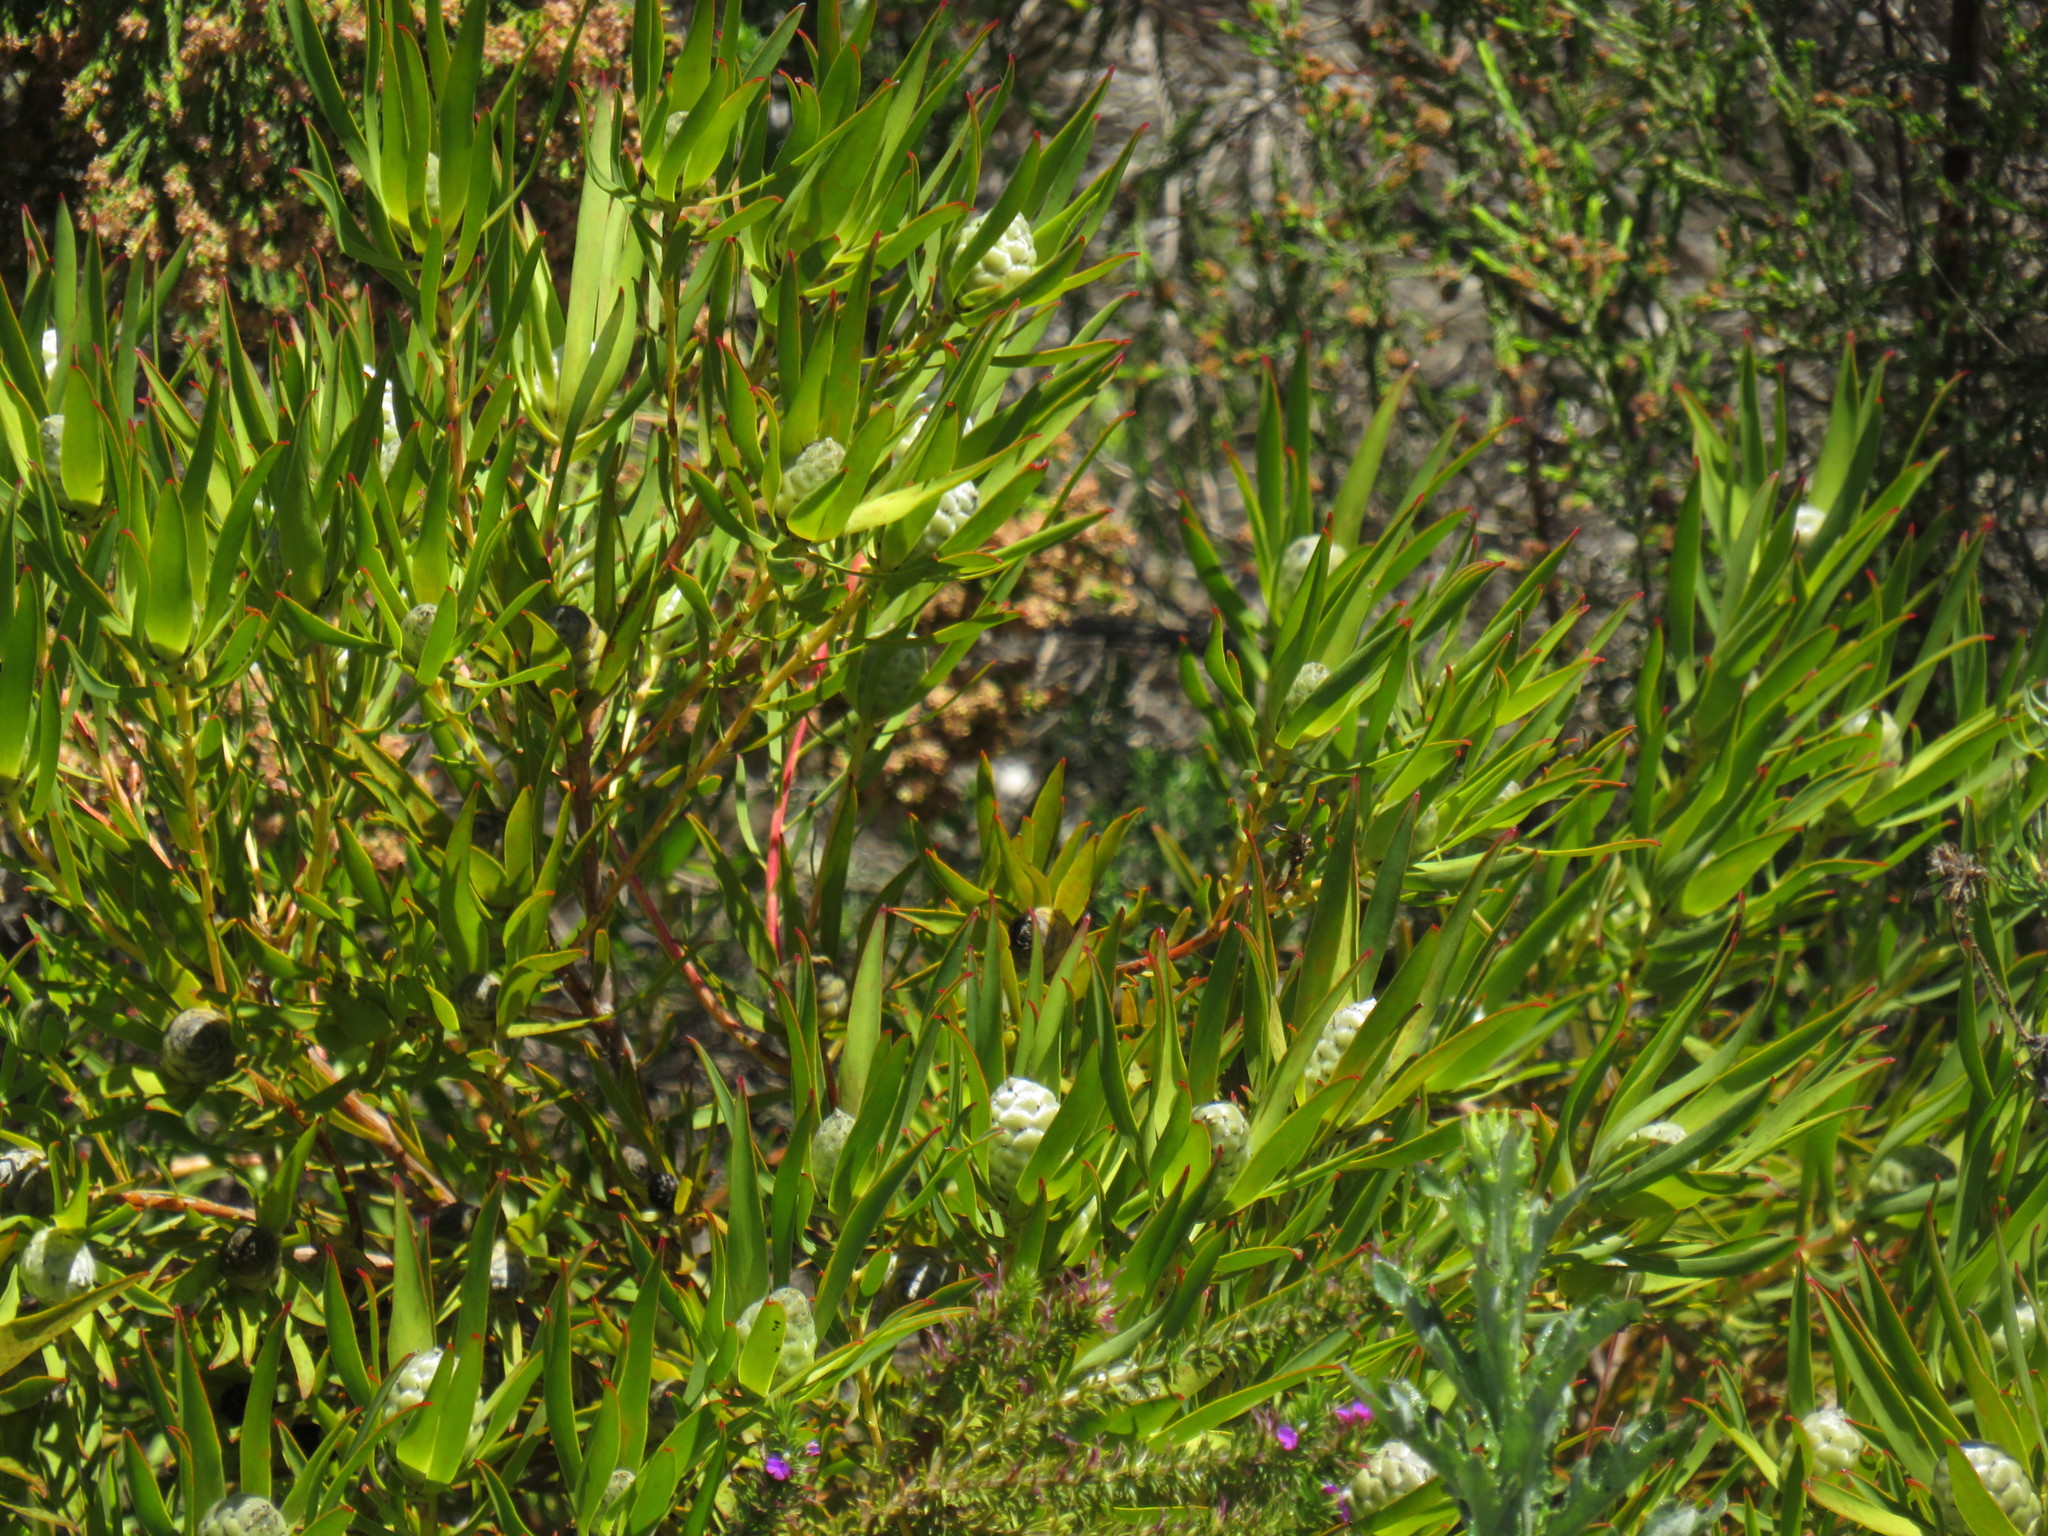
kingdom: Plantae
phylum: Tracheophyta
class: Magnoliopsida
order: Proteales
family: Proteaceae
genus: Leucadendron
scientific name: Leucadendron salignum
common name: Common sunshine conebush
